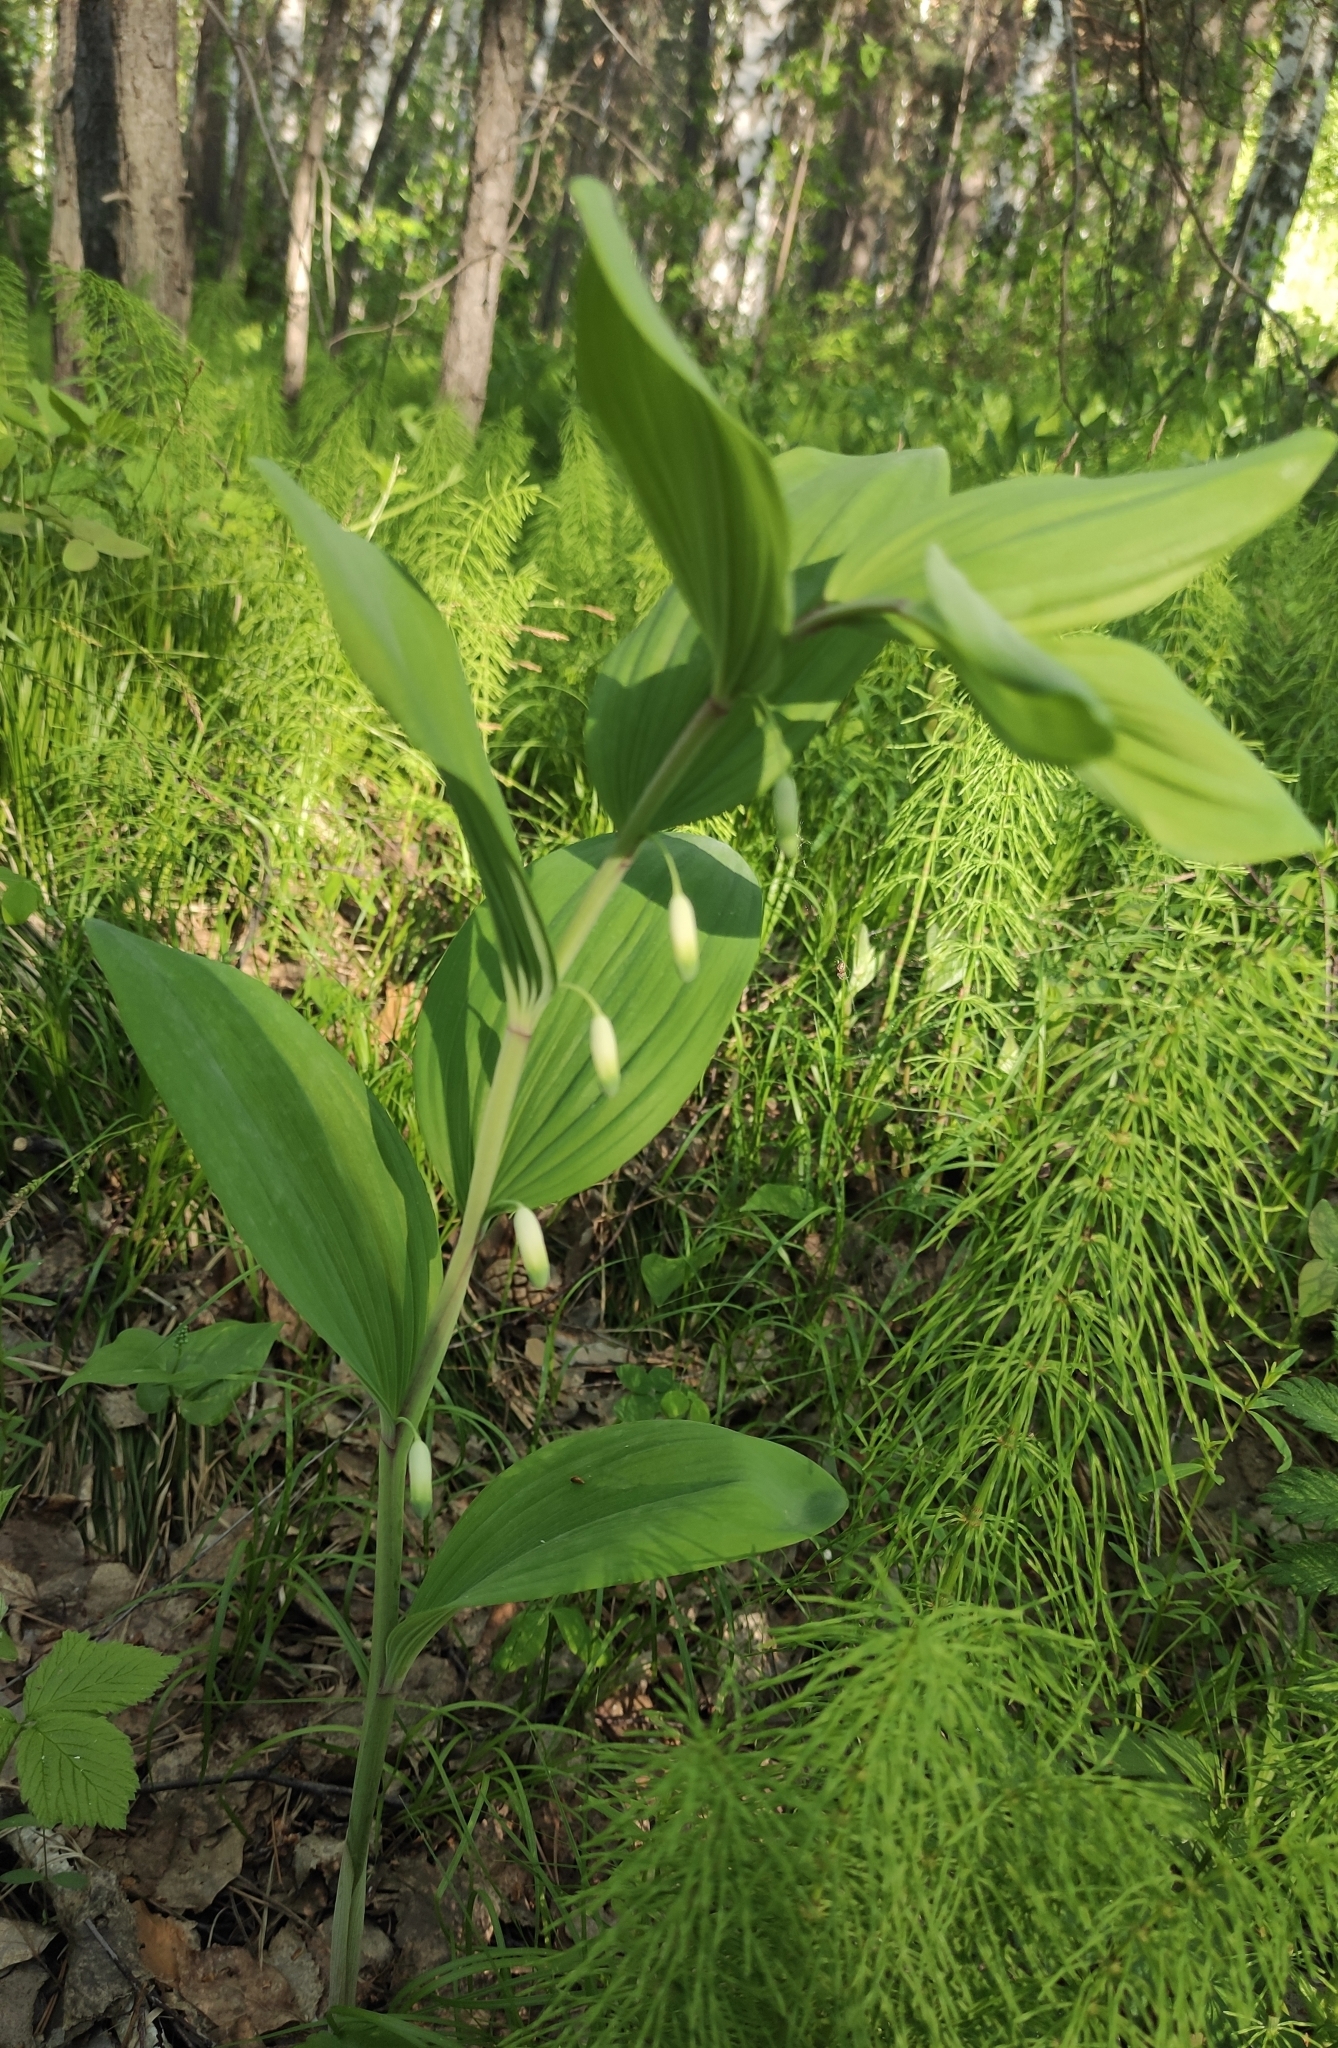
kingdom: Plantae
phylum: Tracheophyta
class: Liliopsida
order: Asparagales
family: Asparagaceae
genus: Polygonatum
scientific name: Polygonatum odoratum
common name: Angular solomon's-seal
